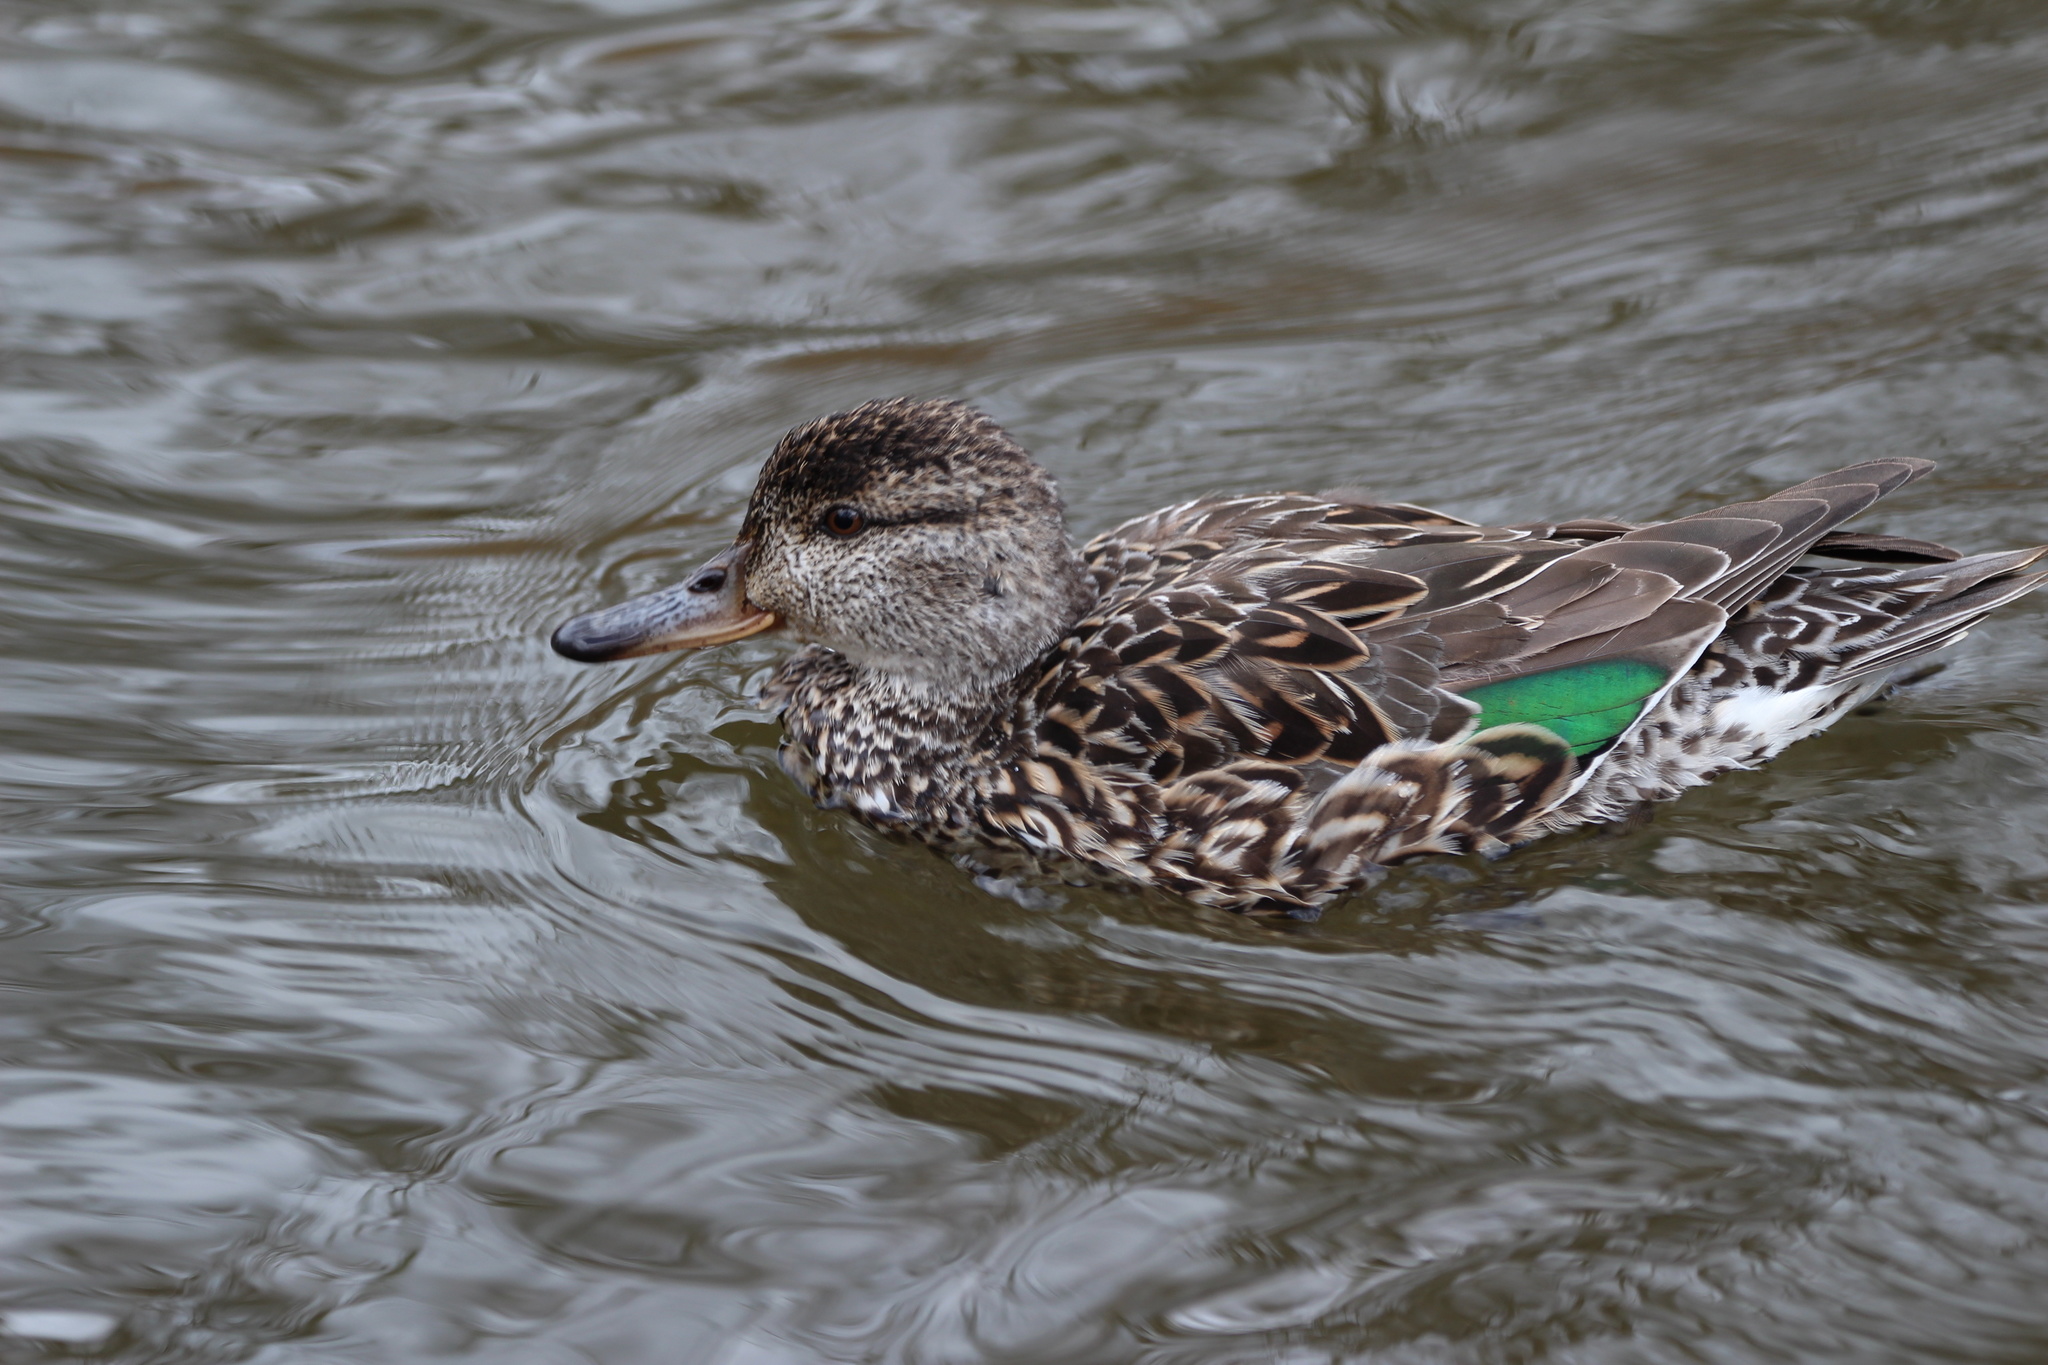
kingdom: Animalia
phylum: Chordata
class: Aves
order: Anseriformes
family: Anatidae
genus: Anas
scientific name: Anas crecca
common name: Eurasian teal
